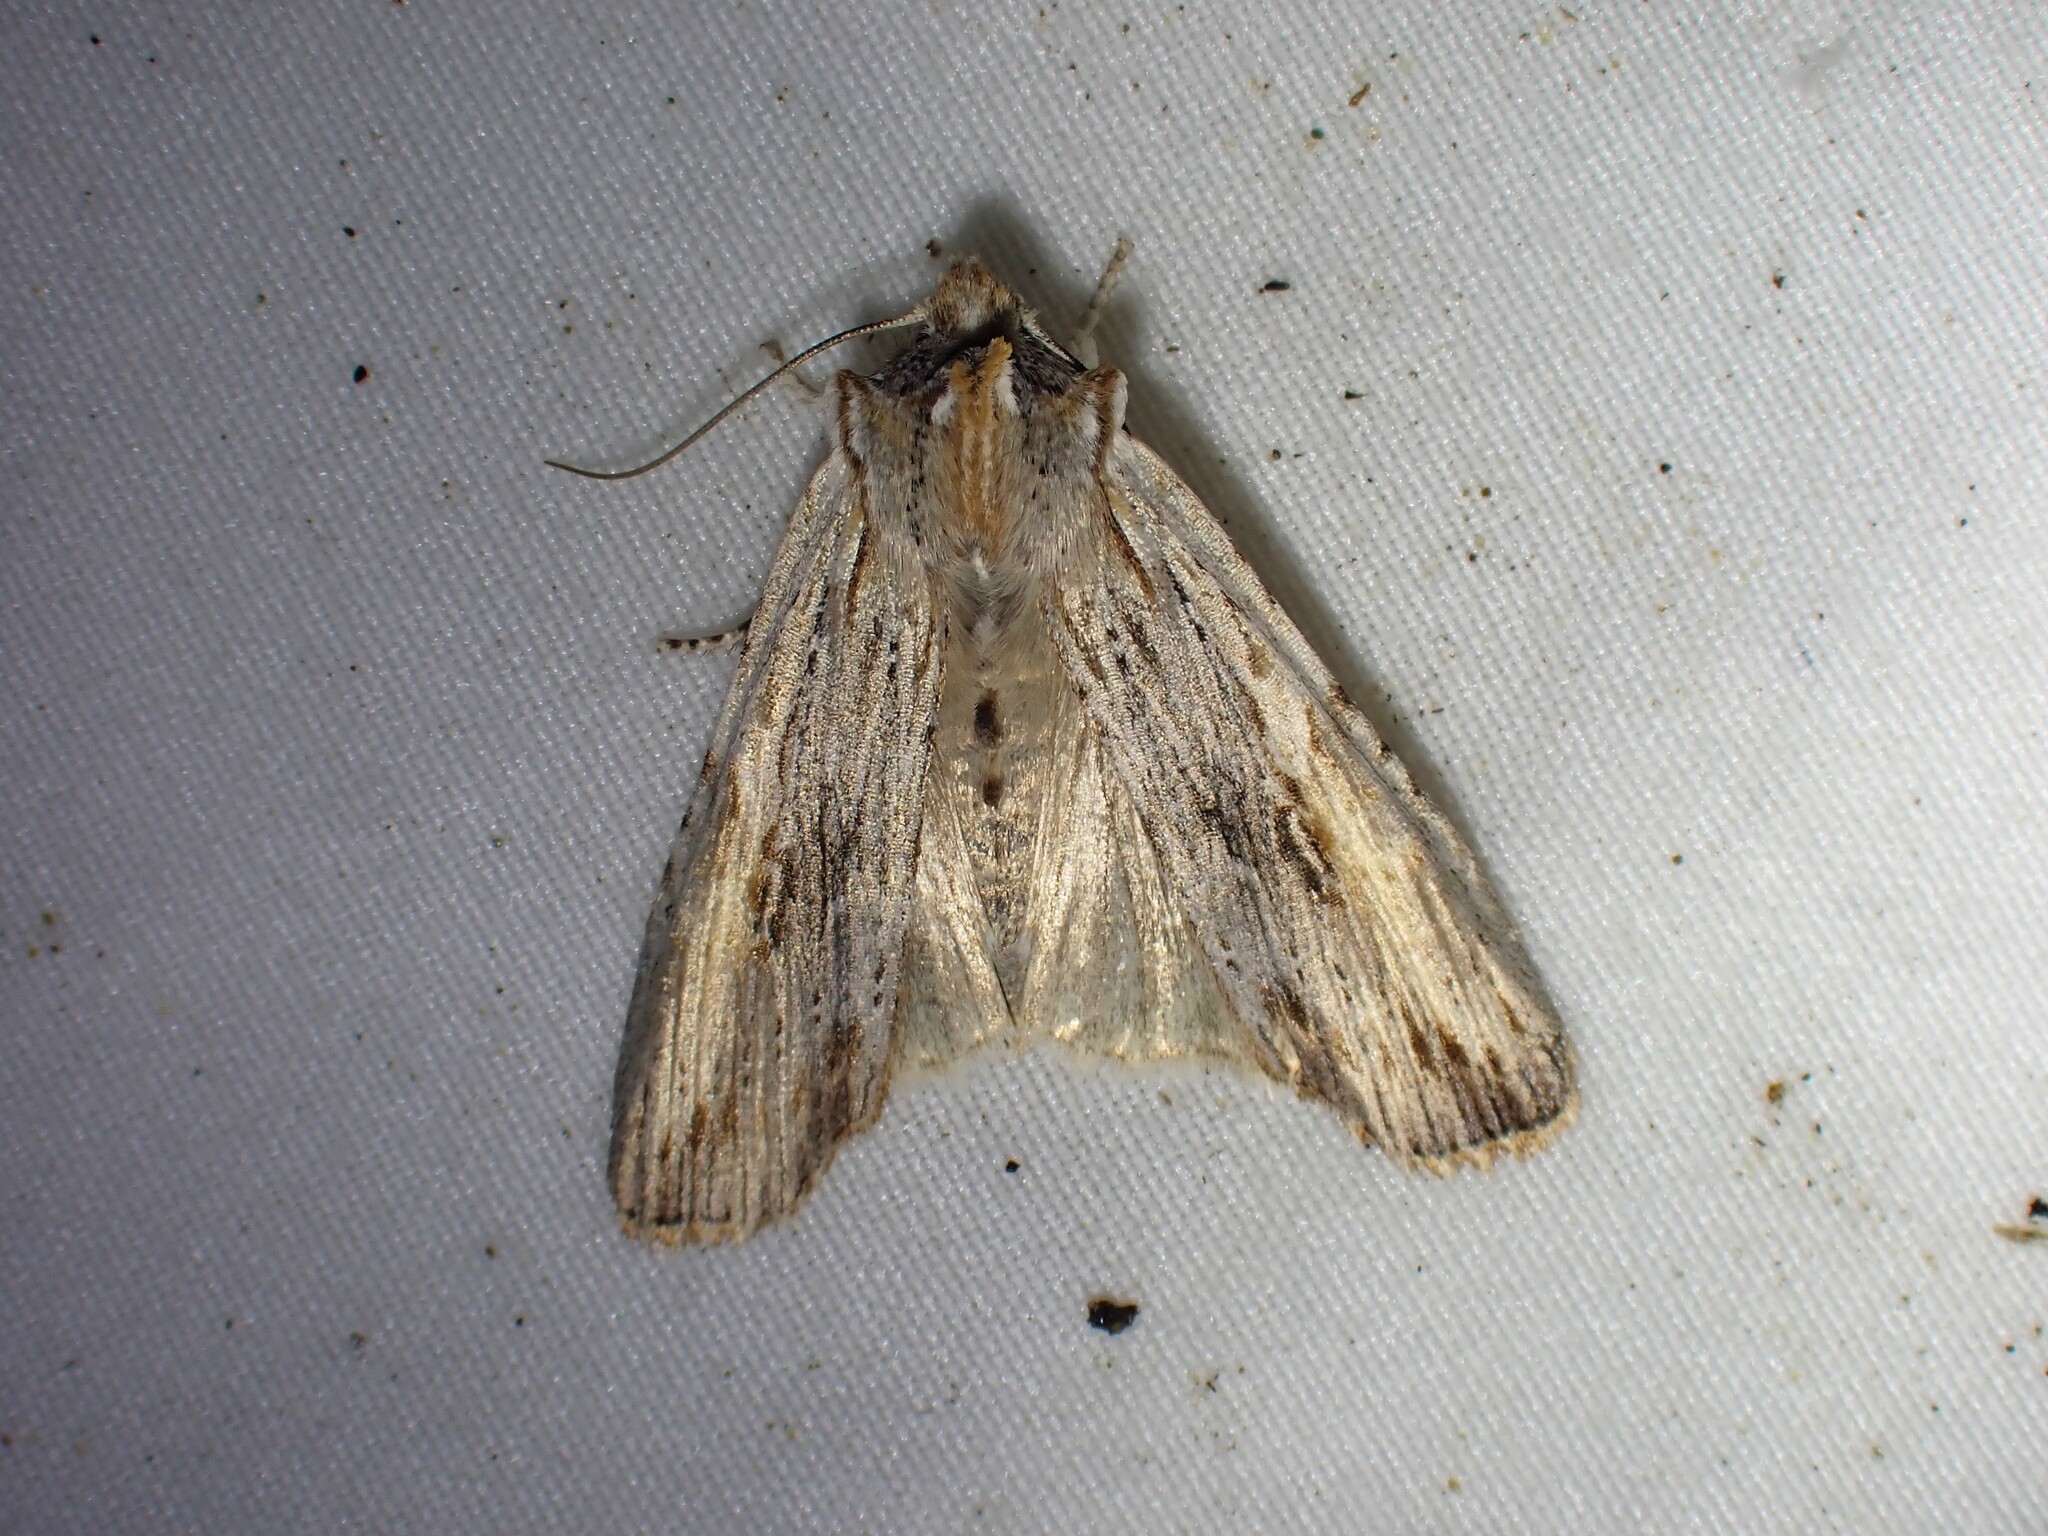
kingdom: Animalia
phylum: Arthropoda
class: Insecta
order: Lepidoptera
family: Noctuidae
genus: Lithophane
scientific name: Lithophane amanda
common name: Amanda's pinion moth
